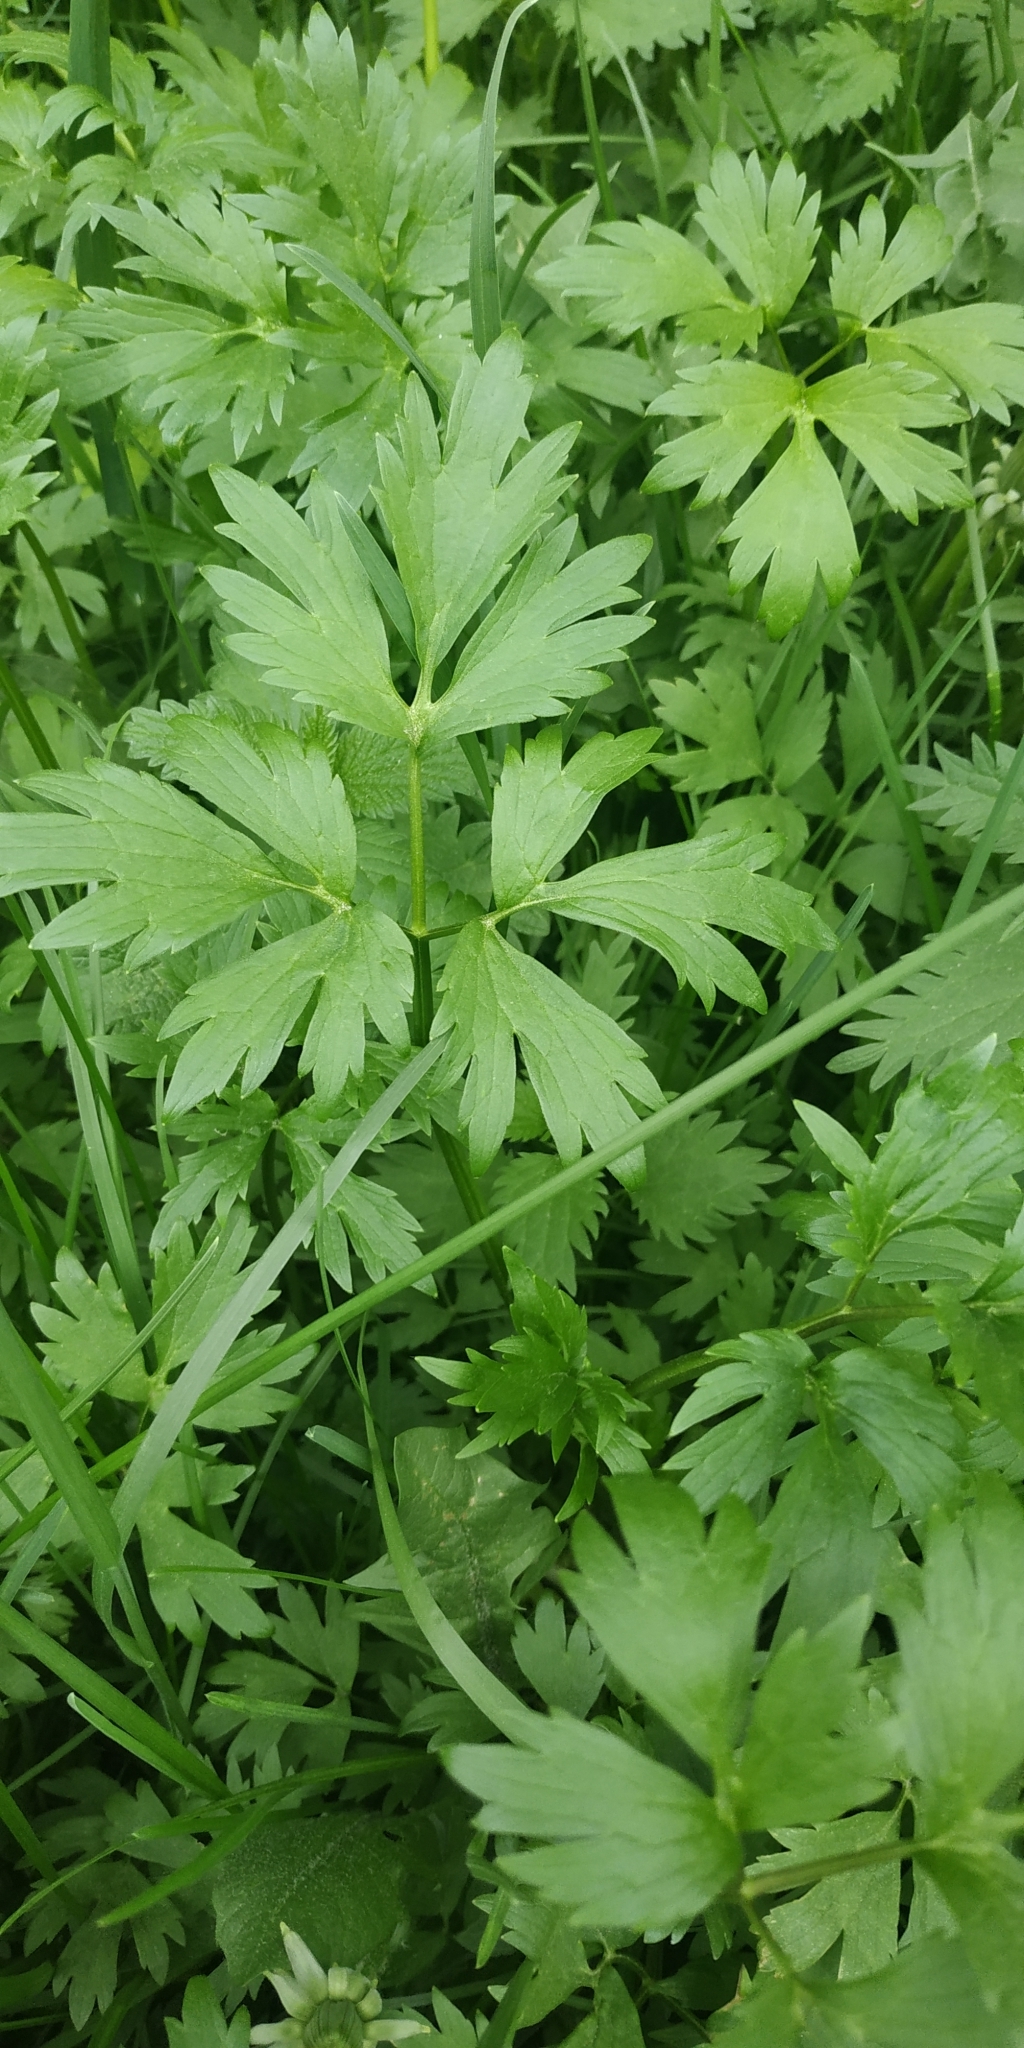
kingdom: Plantae
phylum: Tracheophyta
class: Magnoliopsida
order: Ranunculales
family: Ranunculaceae
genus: Ranunculus
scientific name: Ranunculus repens
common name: Creeping buttercup
